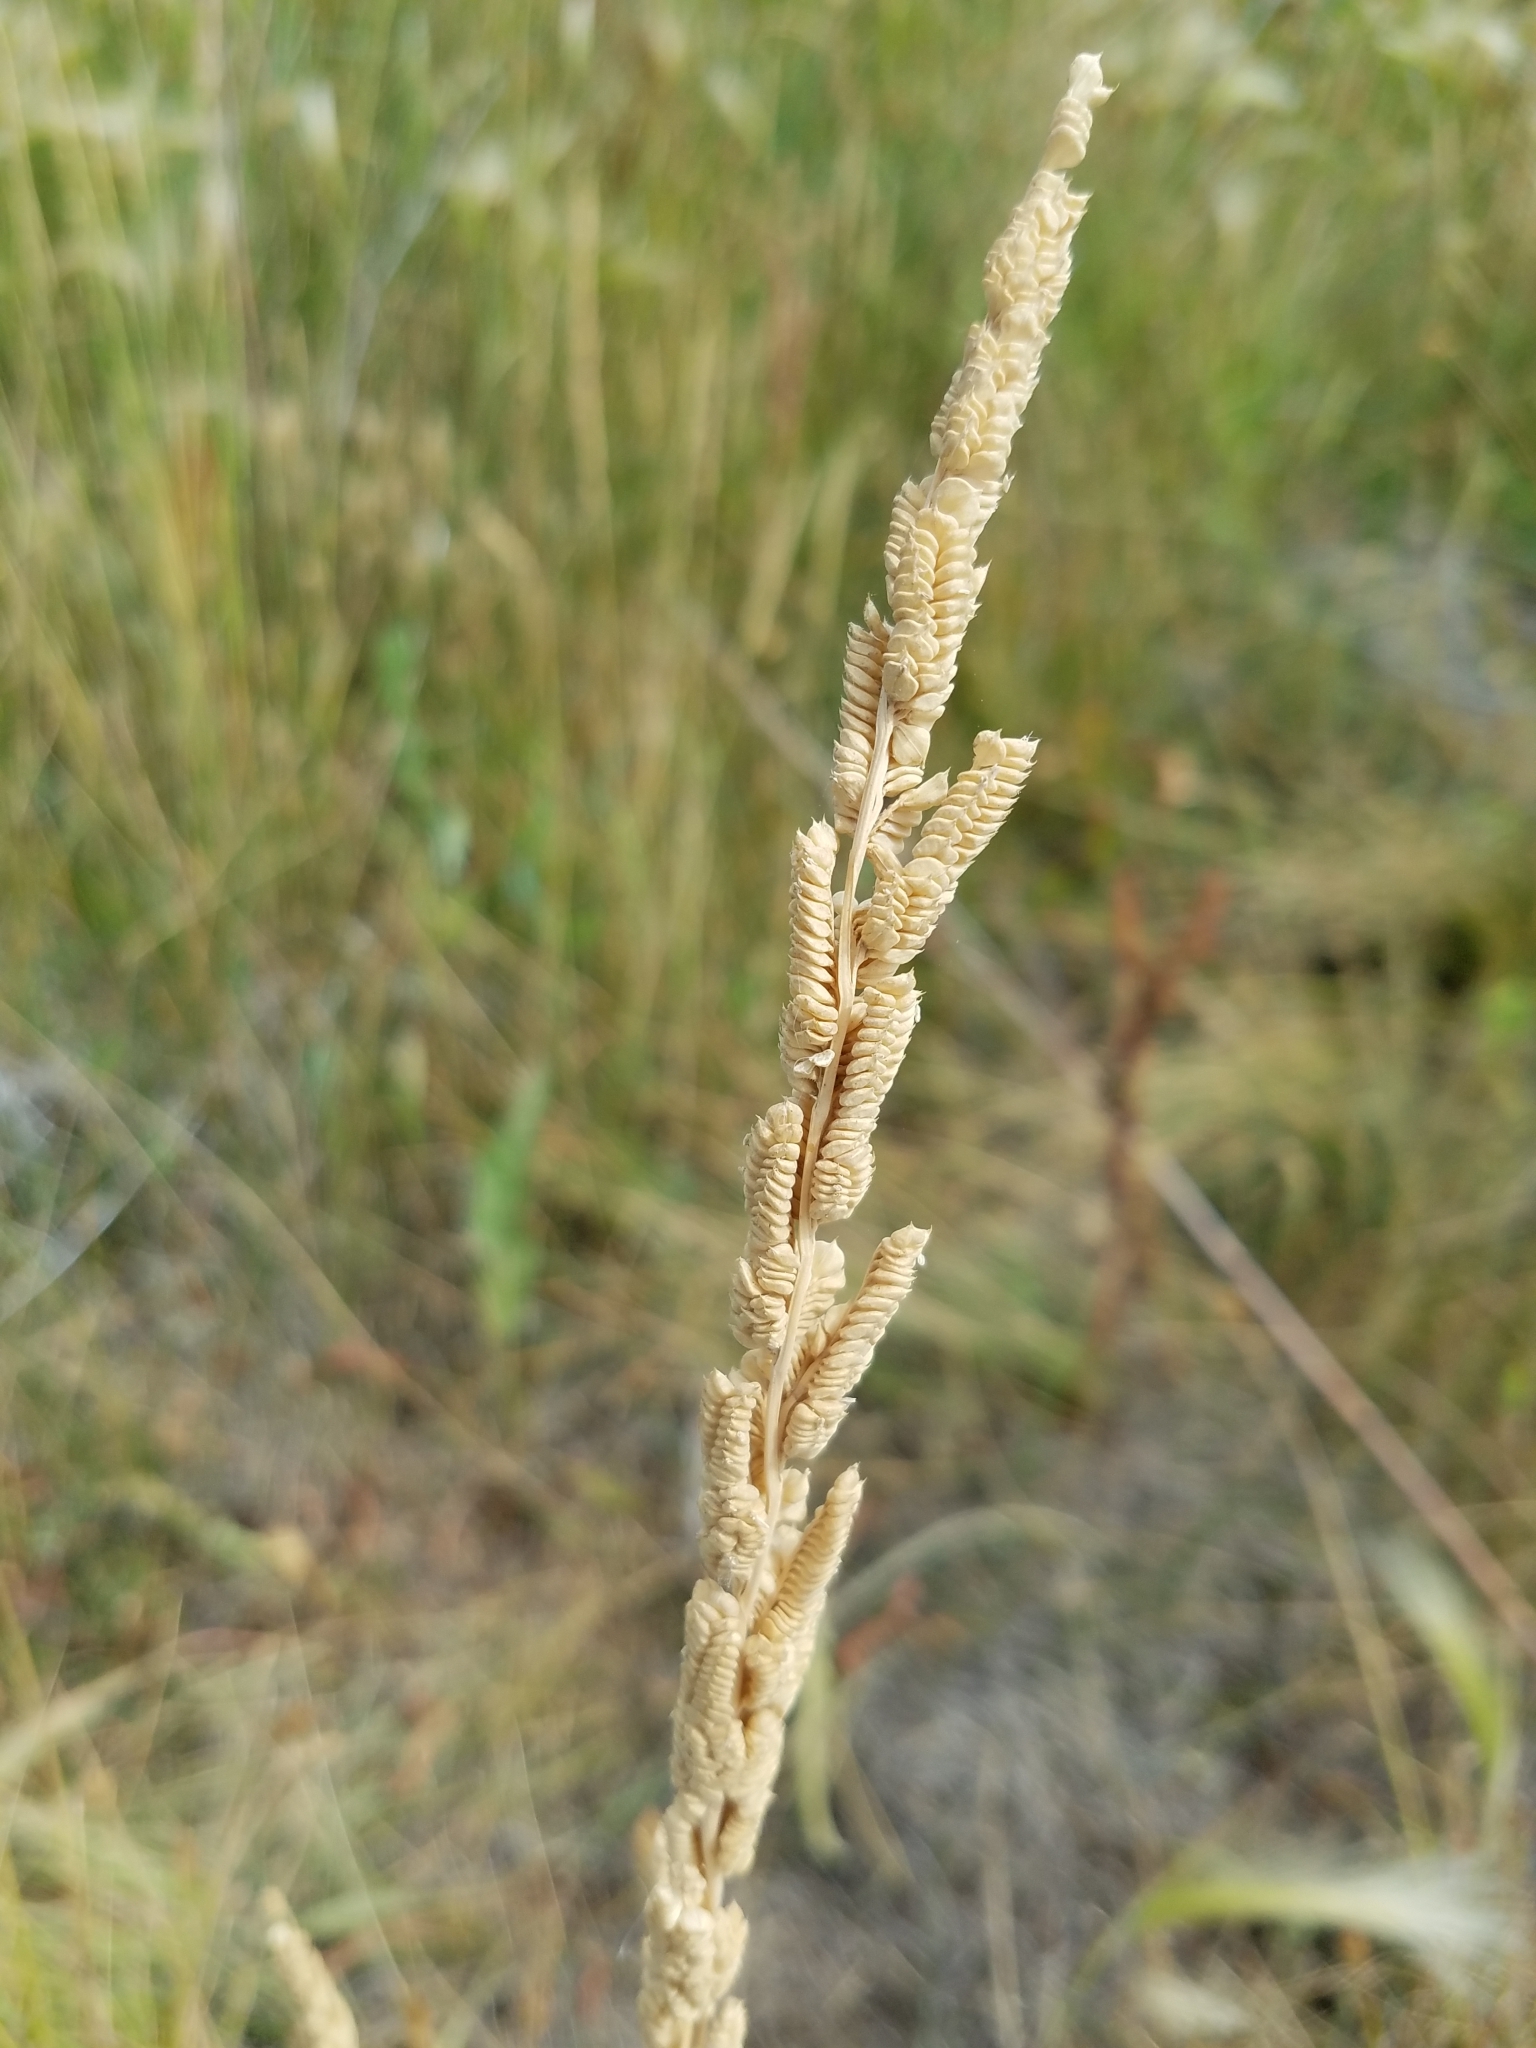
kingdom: Plantae
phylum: Tracheophyta
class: Liliopsida
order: Poales
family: Poaceae
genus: Beckmannia
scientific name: Beckmannia syzigachne
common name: American slough-grass
